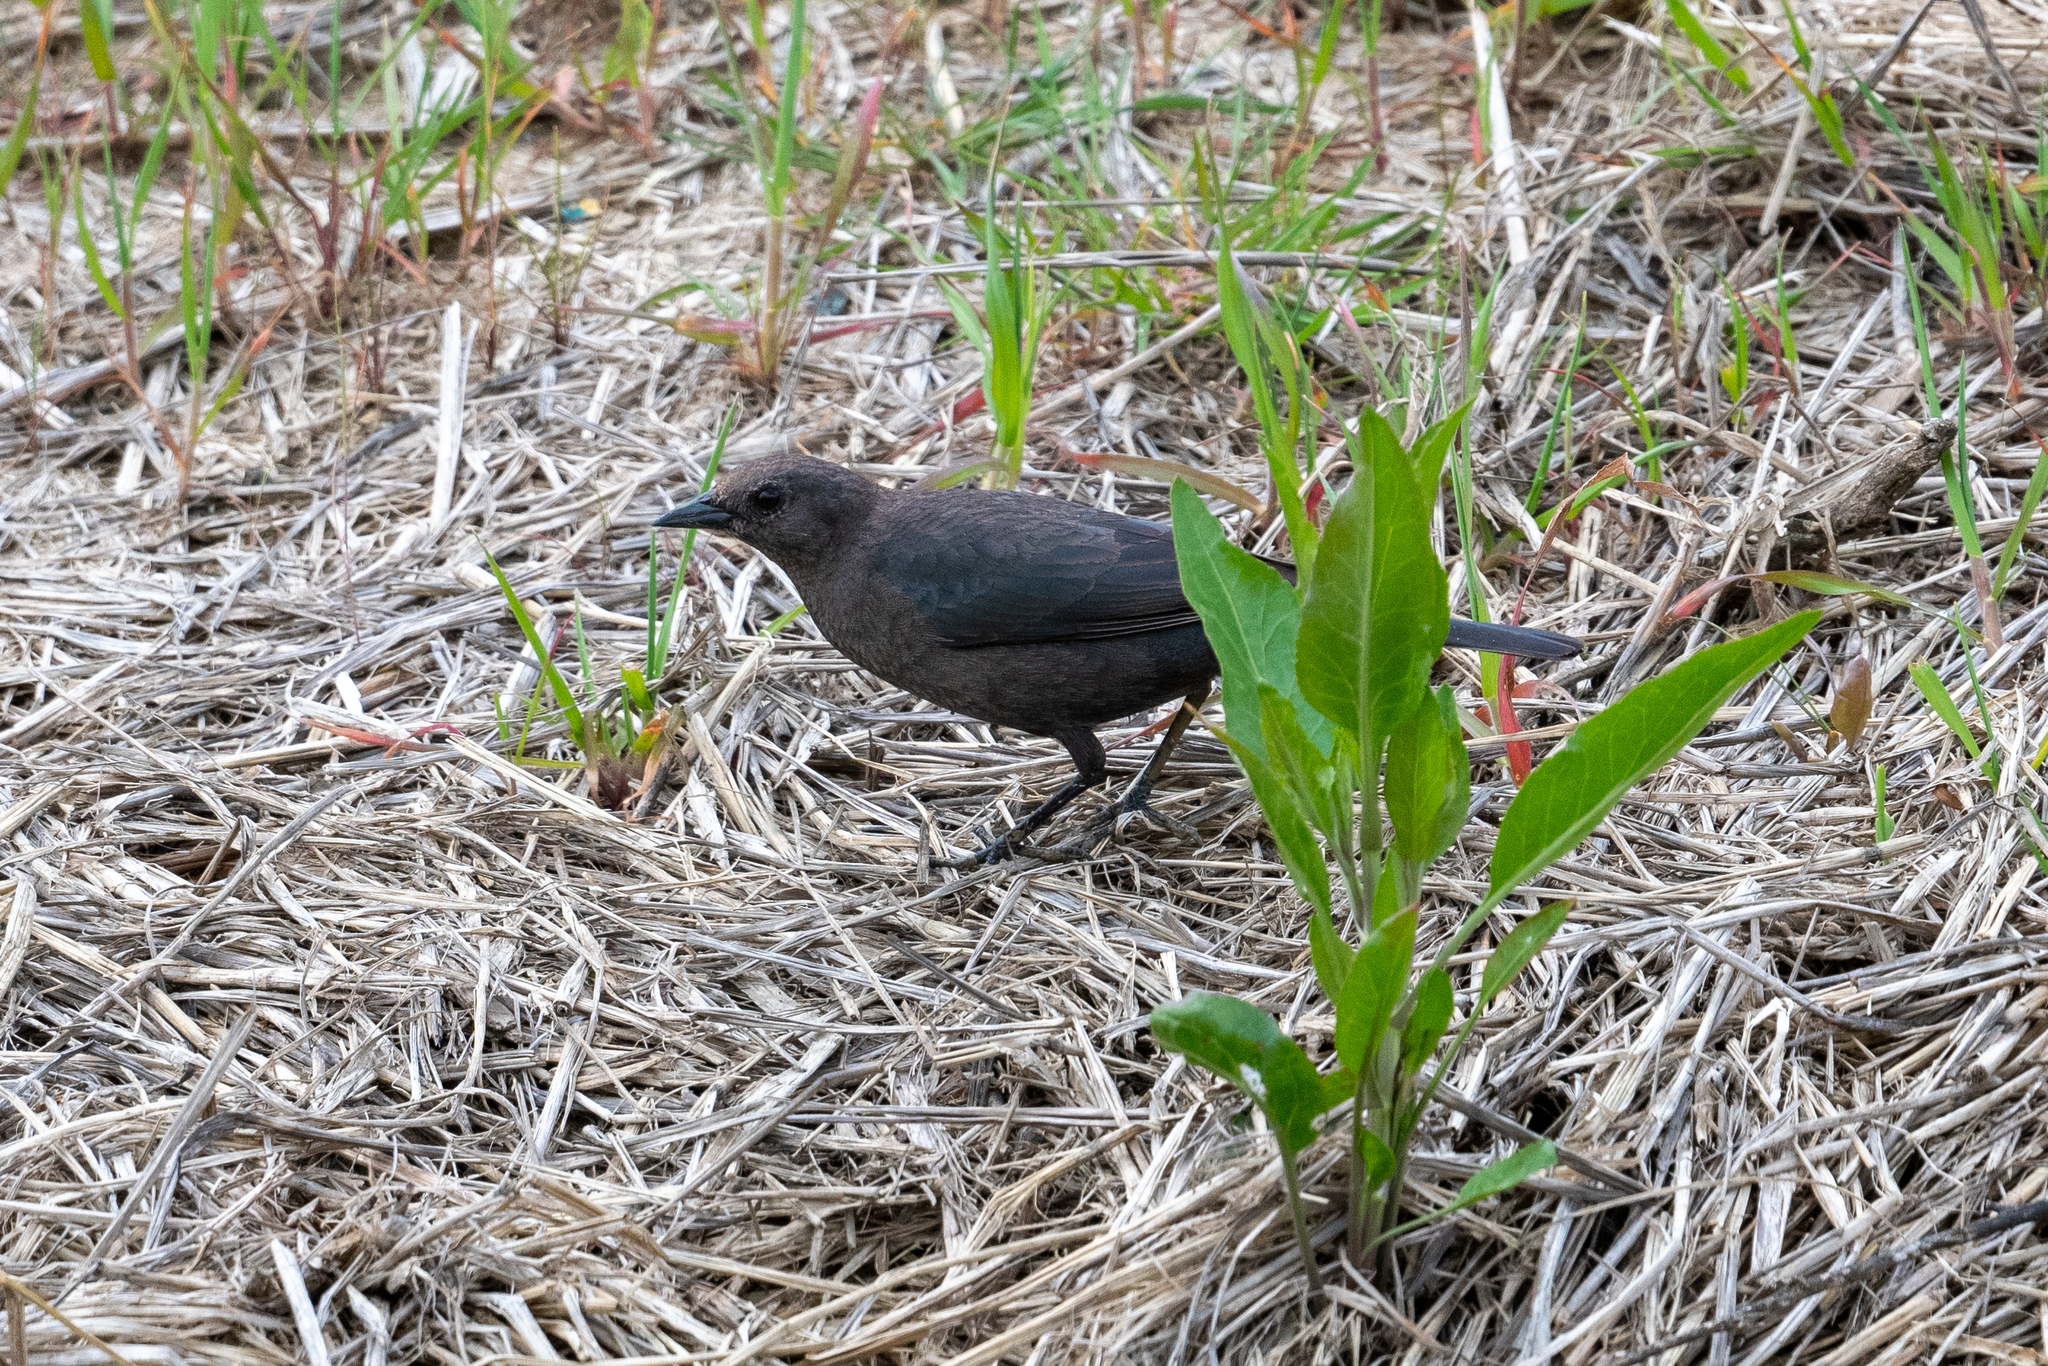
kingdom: Animalia
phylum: Chordata
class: Aves
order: Passeriformes
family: Icteridae
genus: Euphagus
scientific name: Euphagus cyanocephalus
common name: Brewer's blackbird
